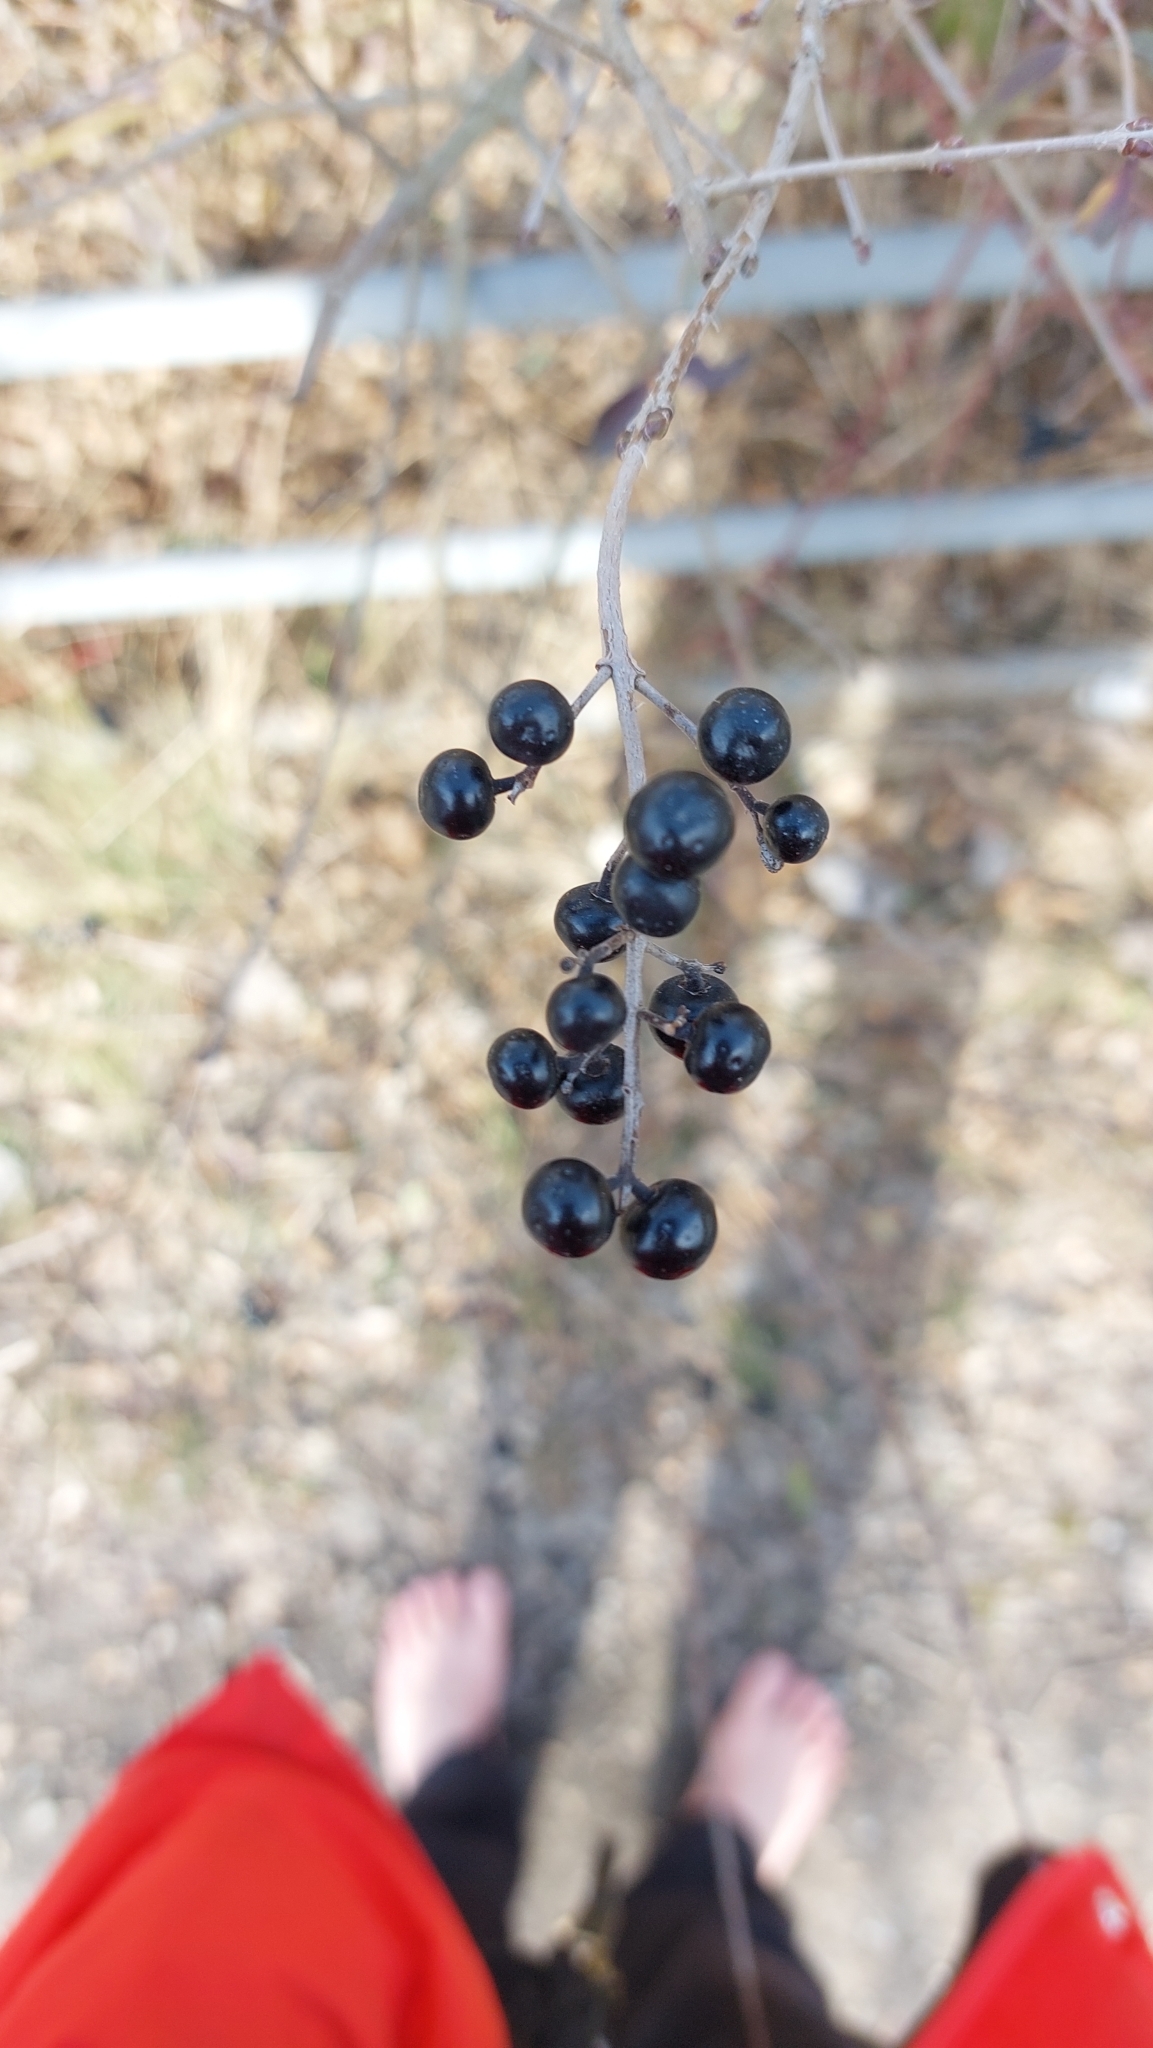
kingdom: Plantae
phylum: Tracheophyta
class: Magnoliopsida
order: Lamiales
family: Oleaceae
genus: Ligustrum
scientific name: Ligustrum vulgare
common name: Wild privet
